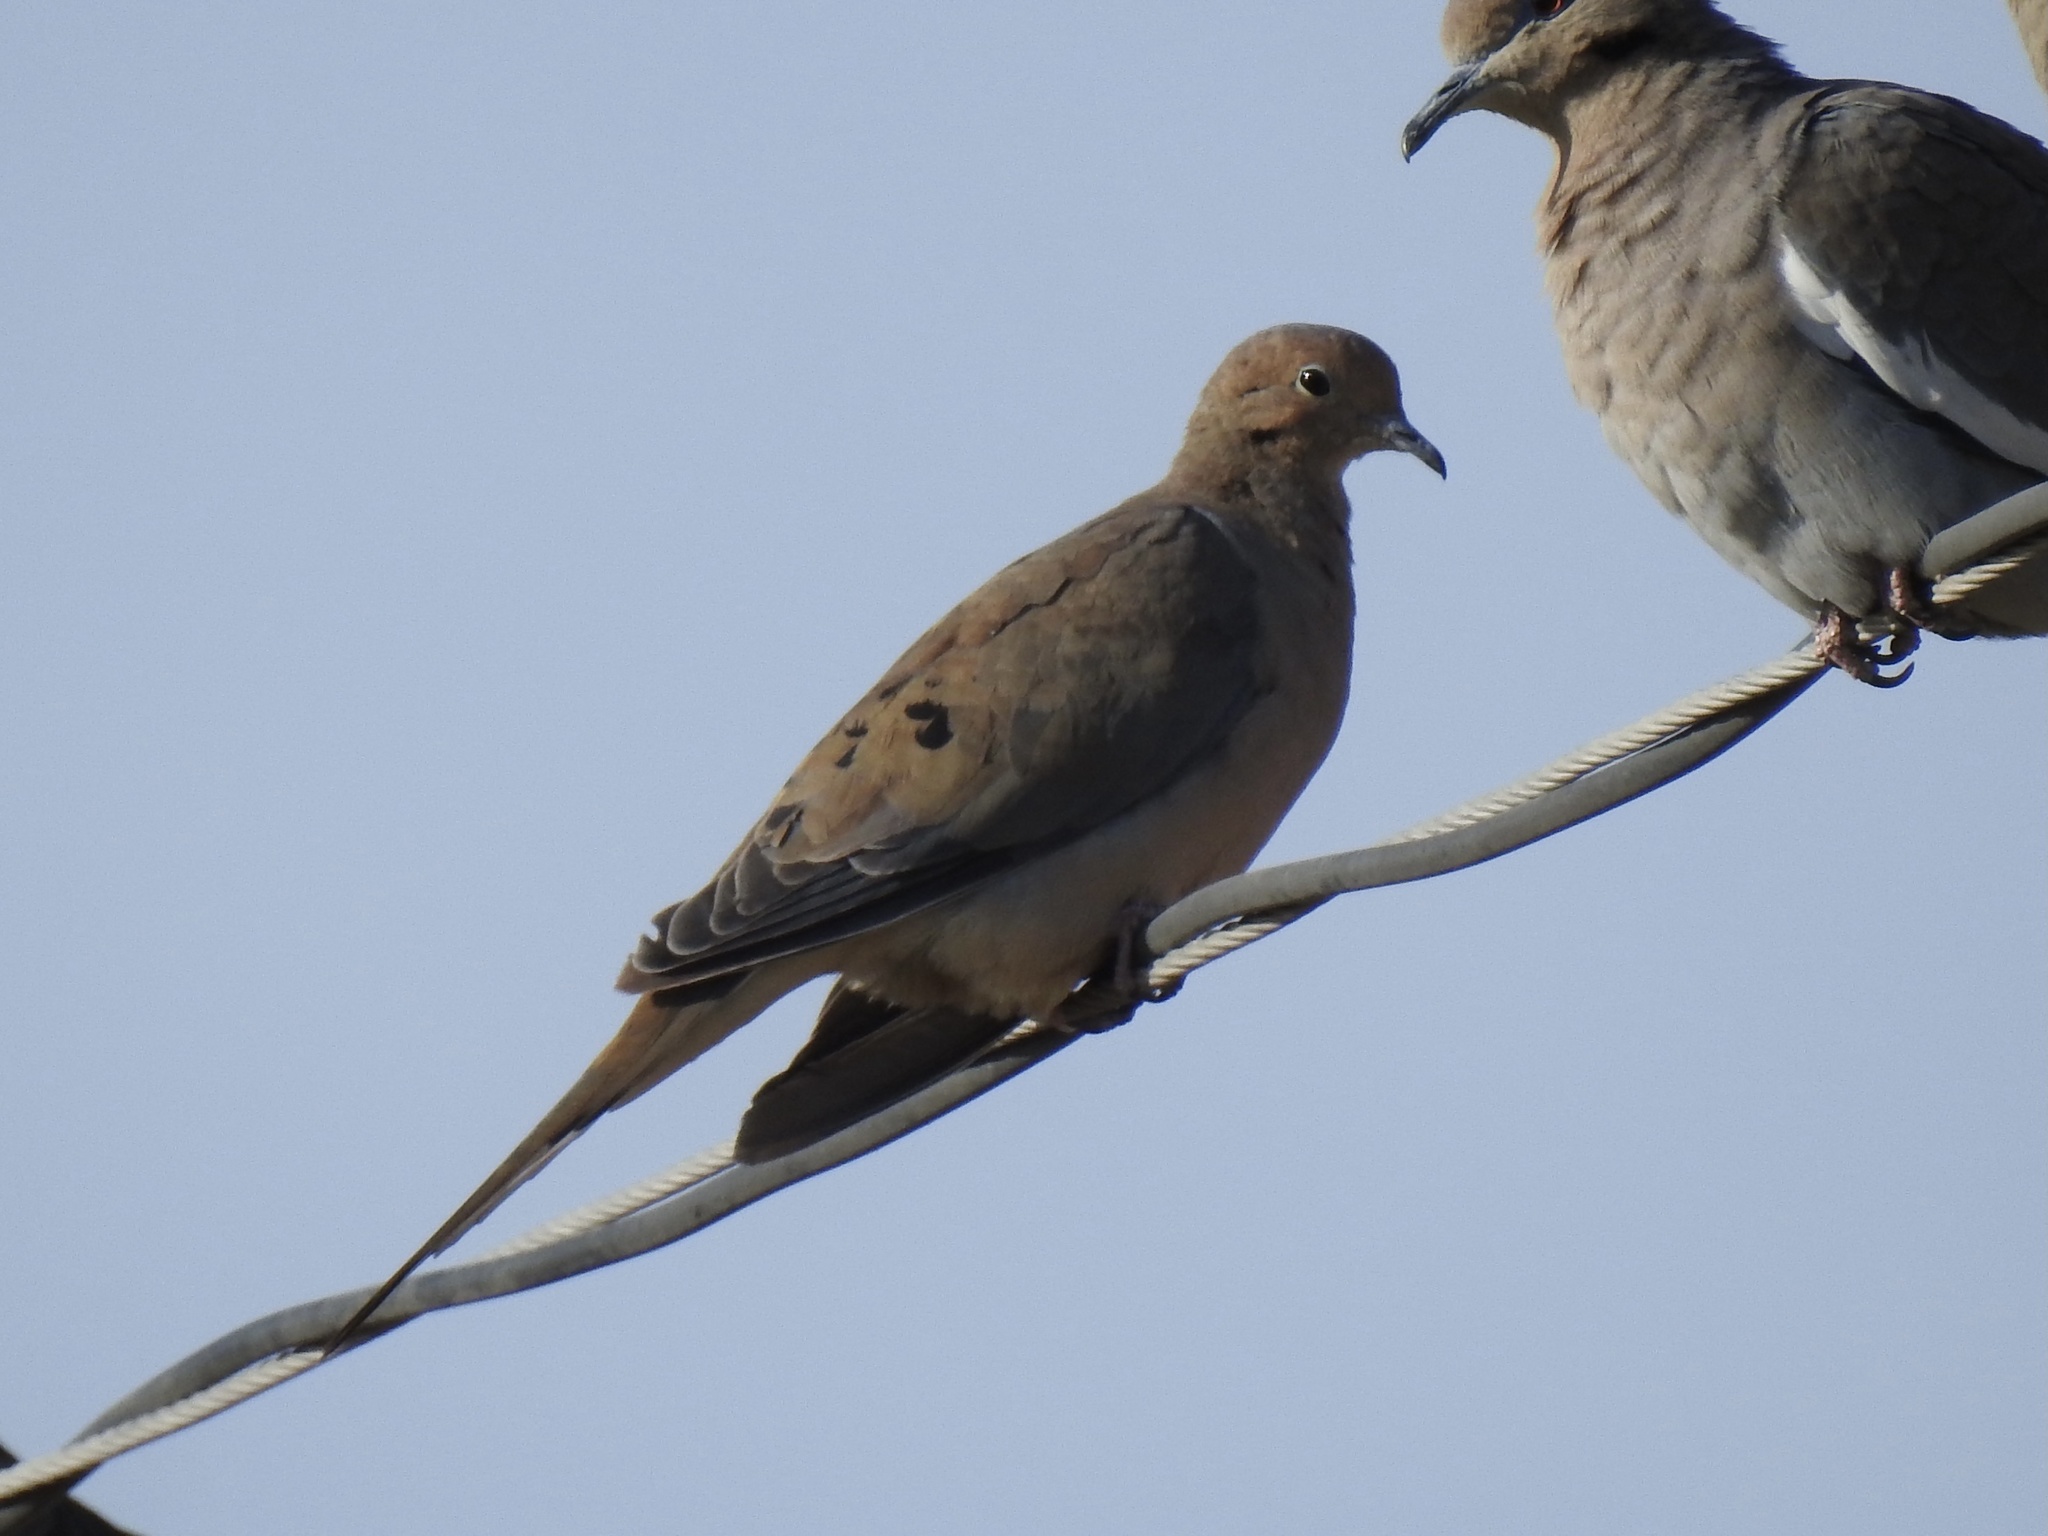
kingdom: Animalia
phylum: Chordata
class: Aves
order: Columbiformes
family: Columbidae
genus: Zenaida
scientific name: Zenaida macroura
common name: Mourning dove
